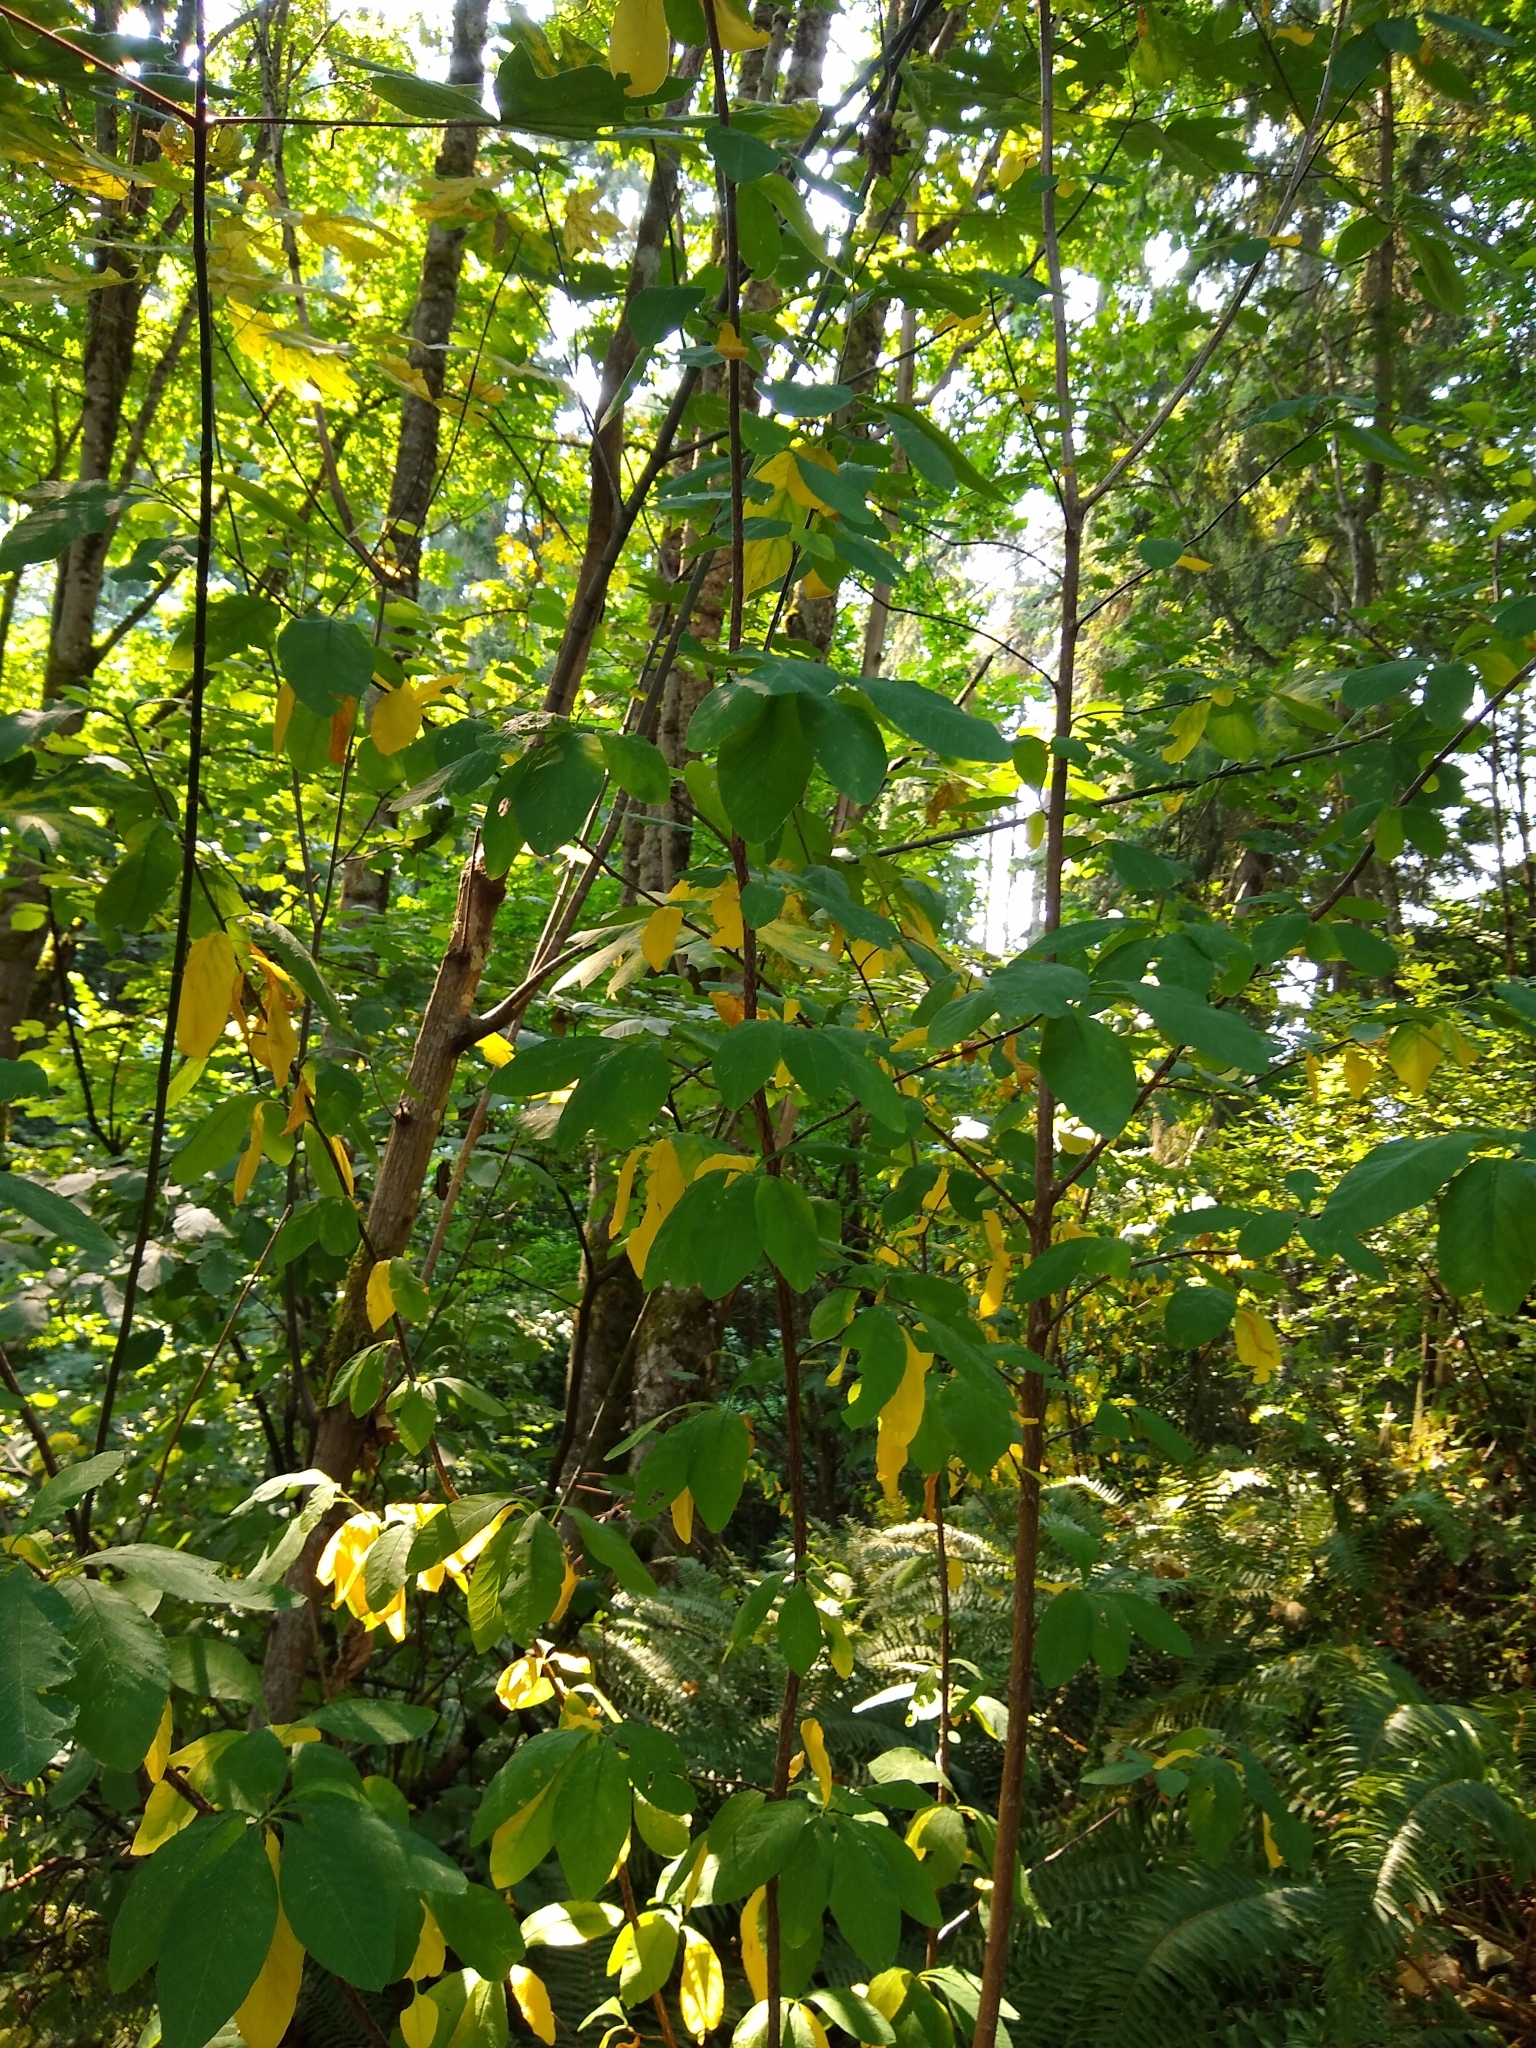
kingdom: Plantae
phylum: Tracheophyta
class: Magnoliopsida
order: Rosales
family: Rosaceae
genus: Oemleria
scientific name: Oemleria cerasiformis
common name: Osoberry
